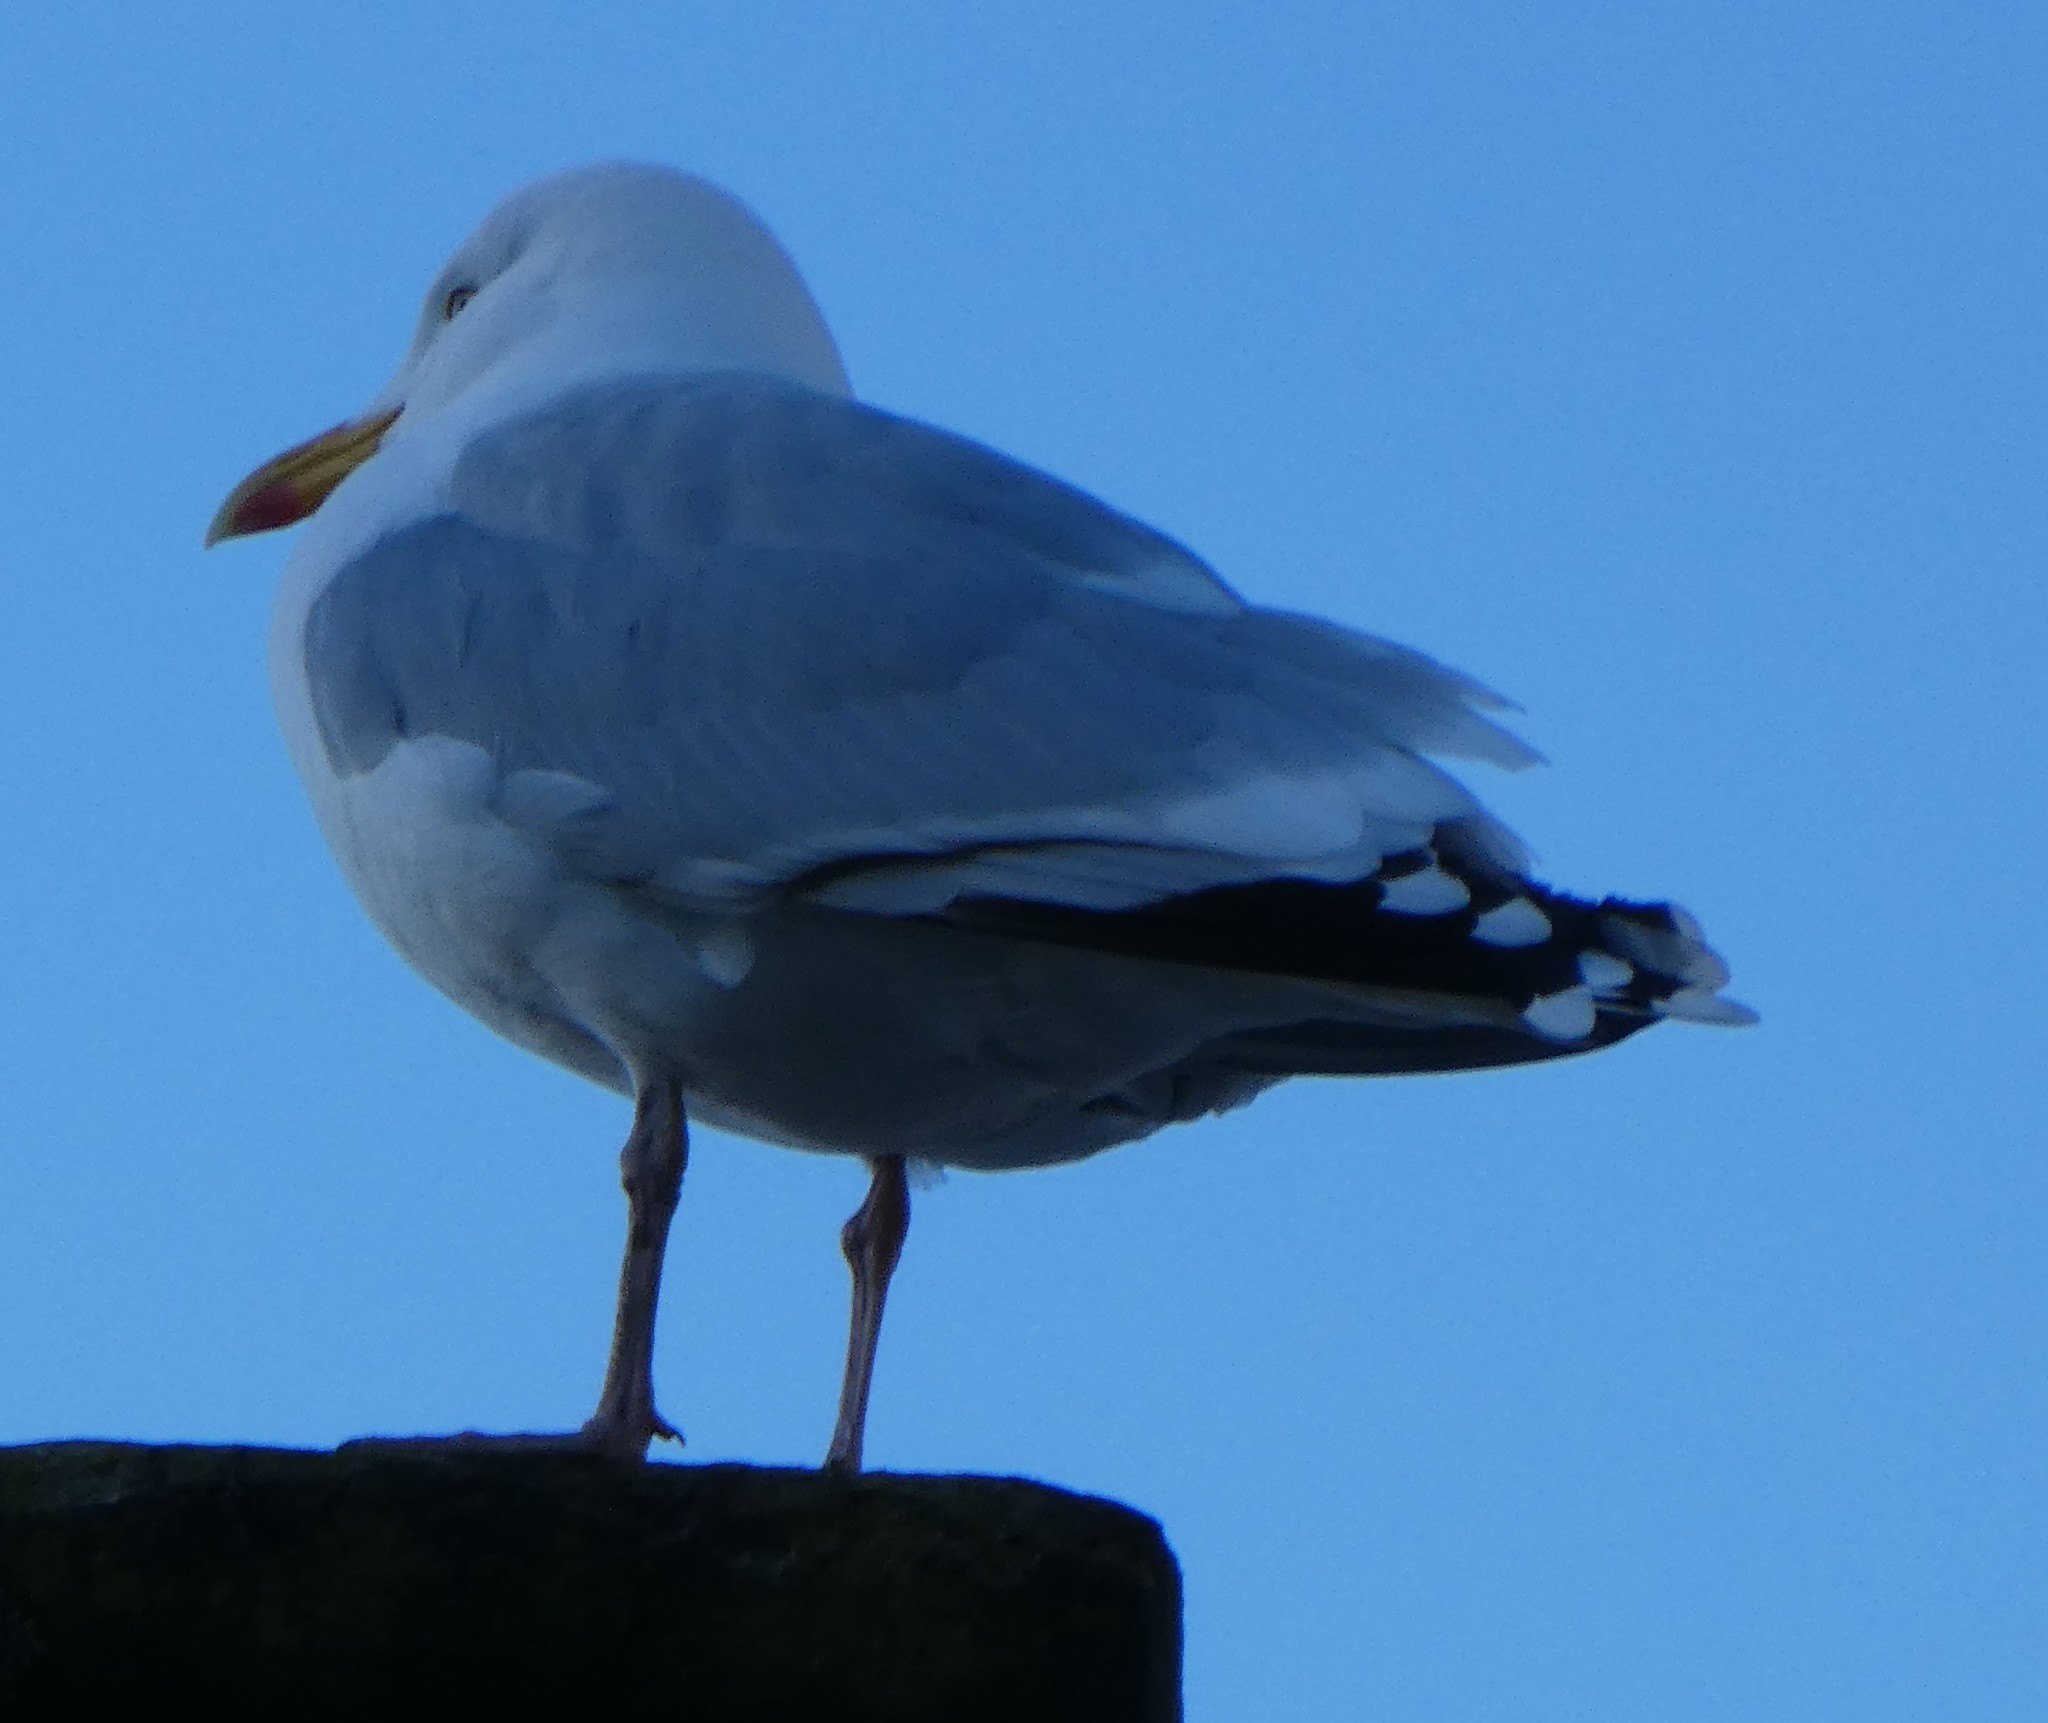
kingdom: Animalia
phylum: Chordata
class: Aves
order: Charadriiformes
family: Laridae
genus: Larus
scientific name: Larus argentatus
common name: Herring gull
